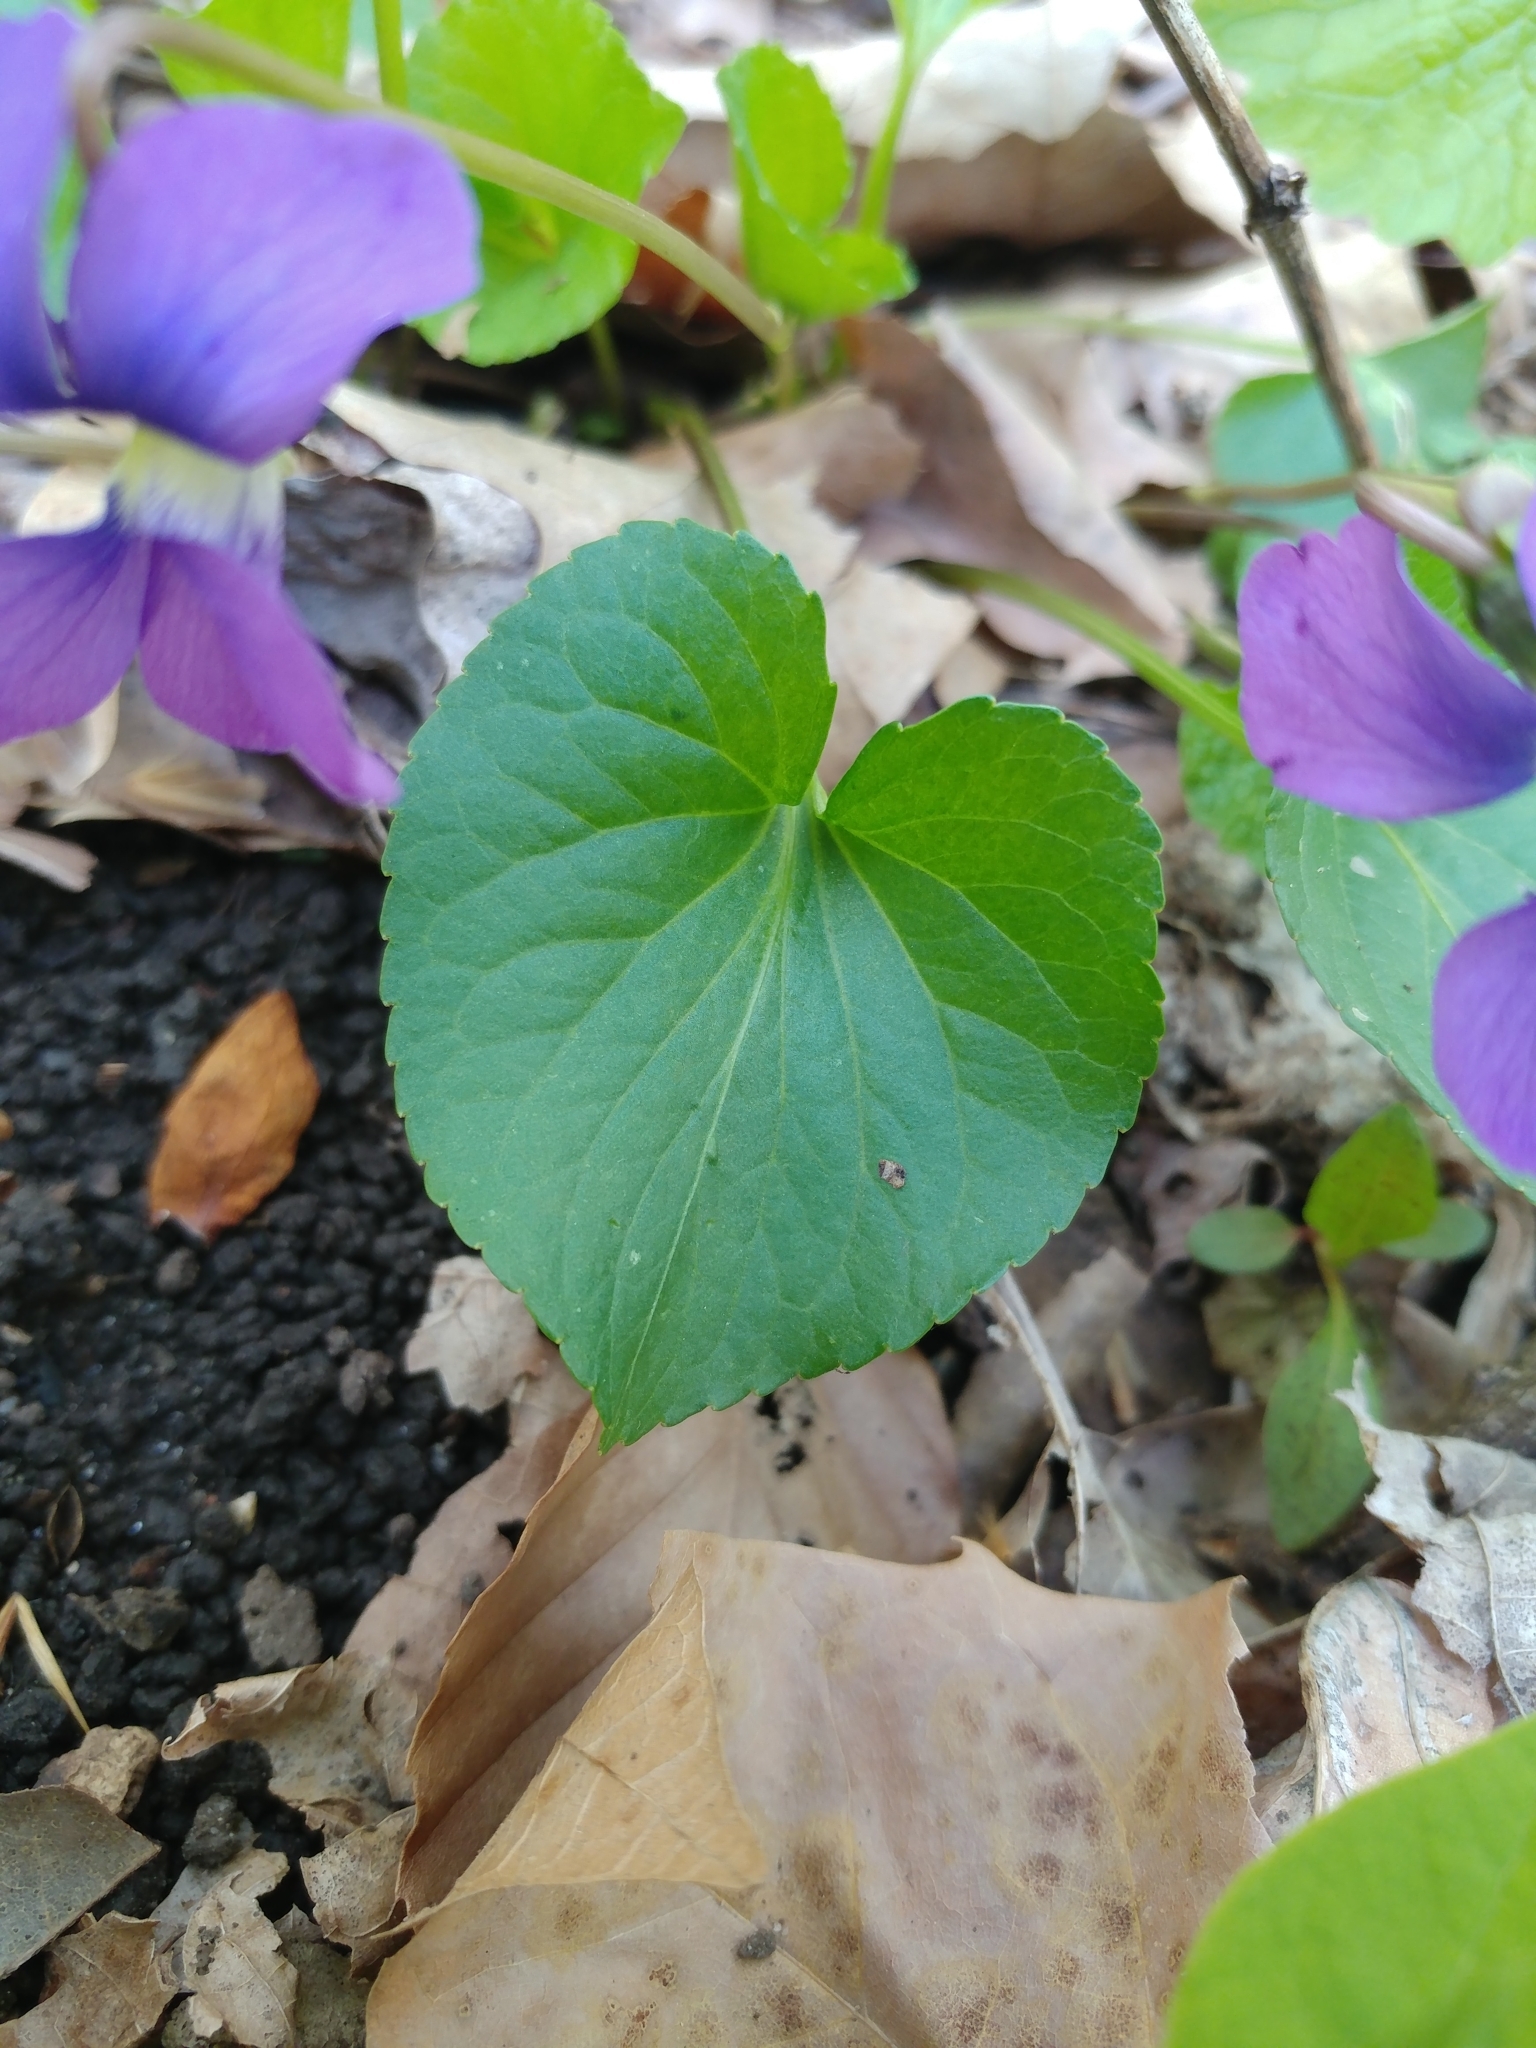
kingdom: Plantae
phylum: Tracheophyta
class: Magnoliopsida
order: Malpighiales
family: Violaceae
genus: Viola
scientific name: Viola sororia
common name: Dooryard violet
